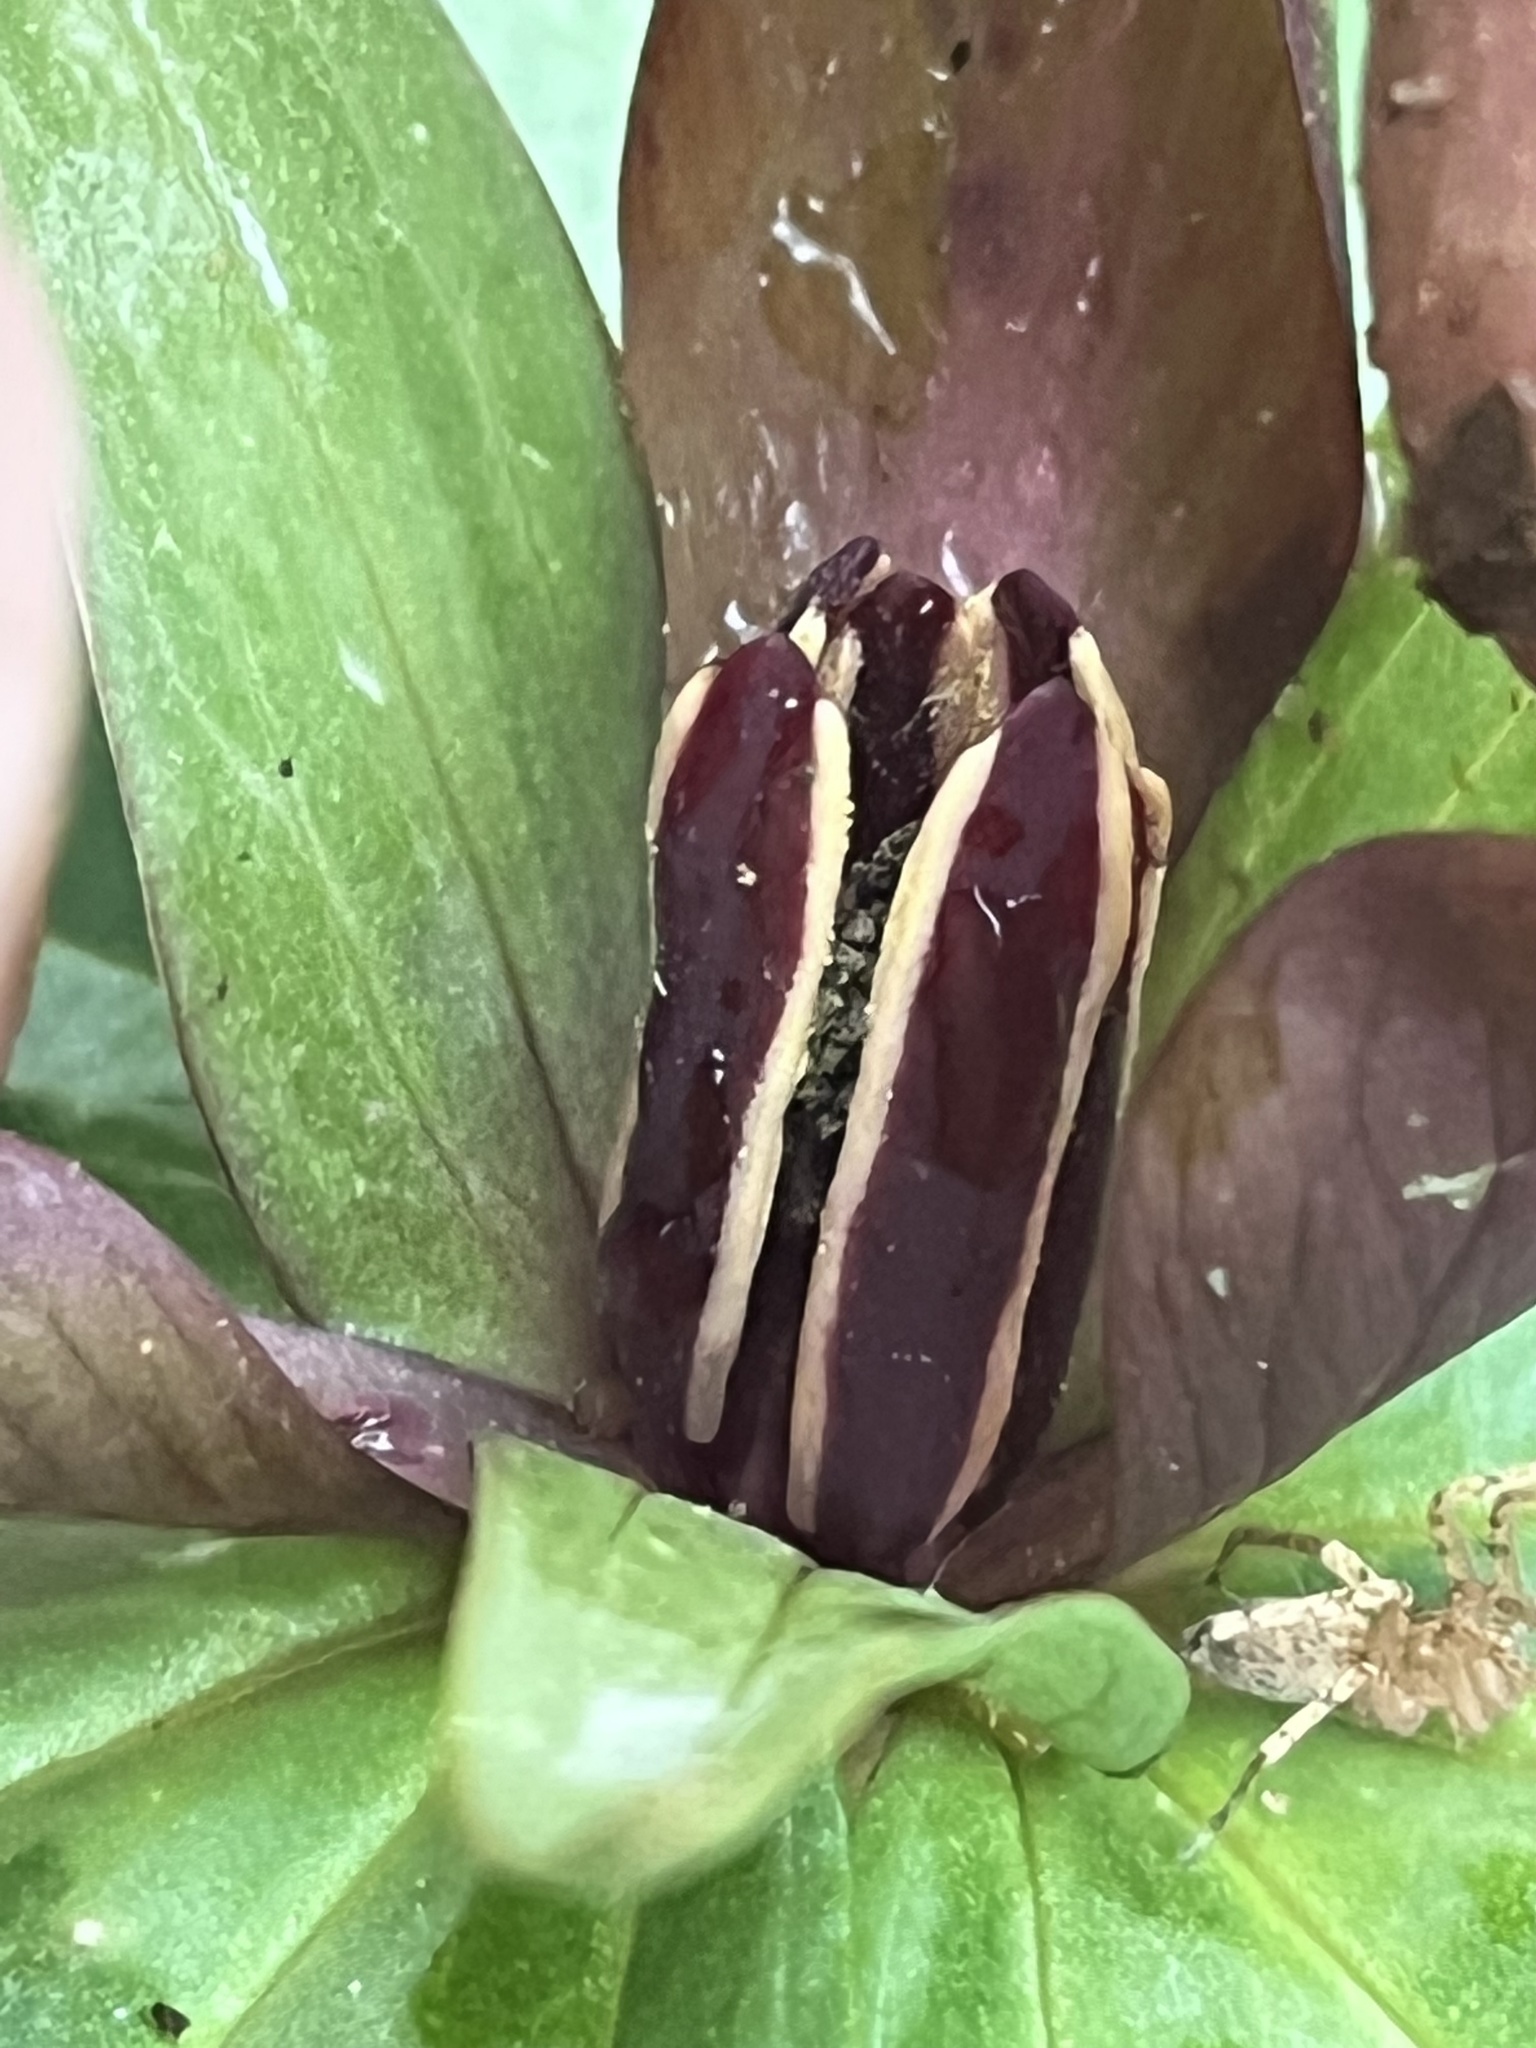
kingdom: Plantae
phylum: Tracheophyta
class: Liliopsida
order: Liliales
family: Melanthiaceae
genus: Trillium
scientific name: Trillium cuneatum
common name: Cuneate trillium
